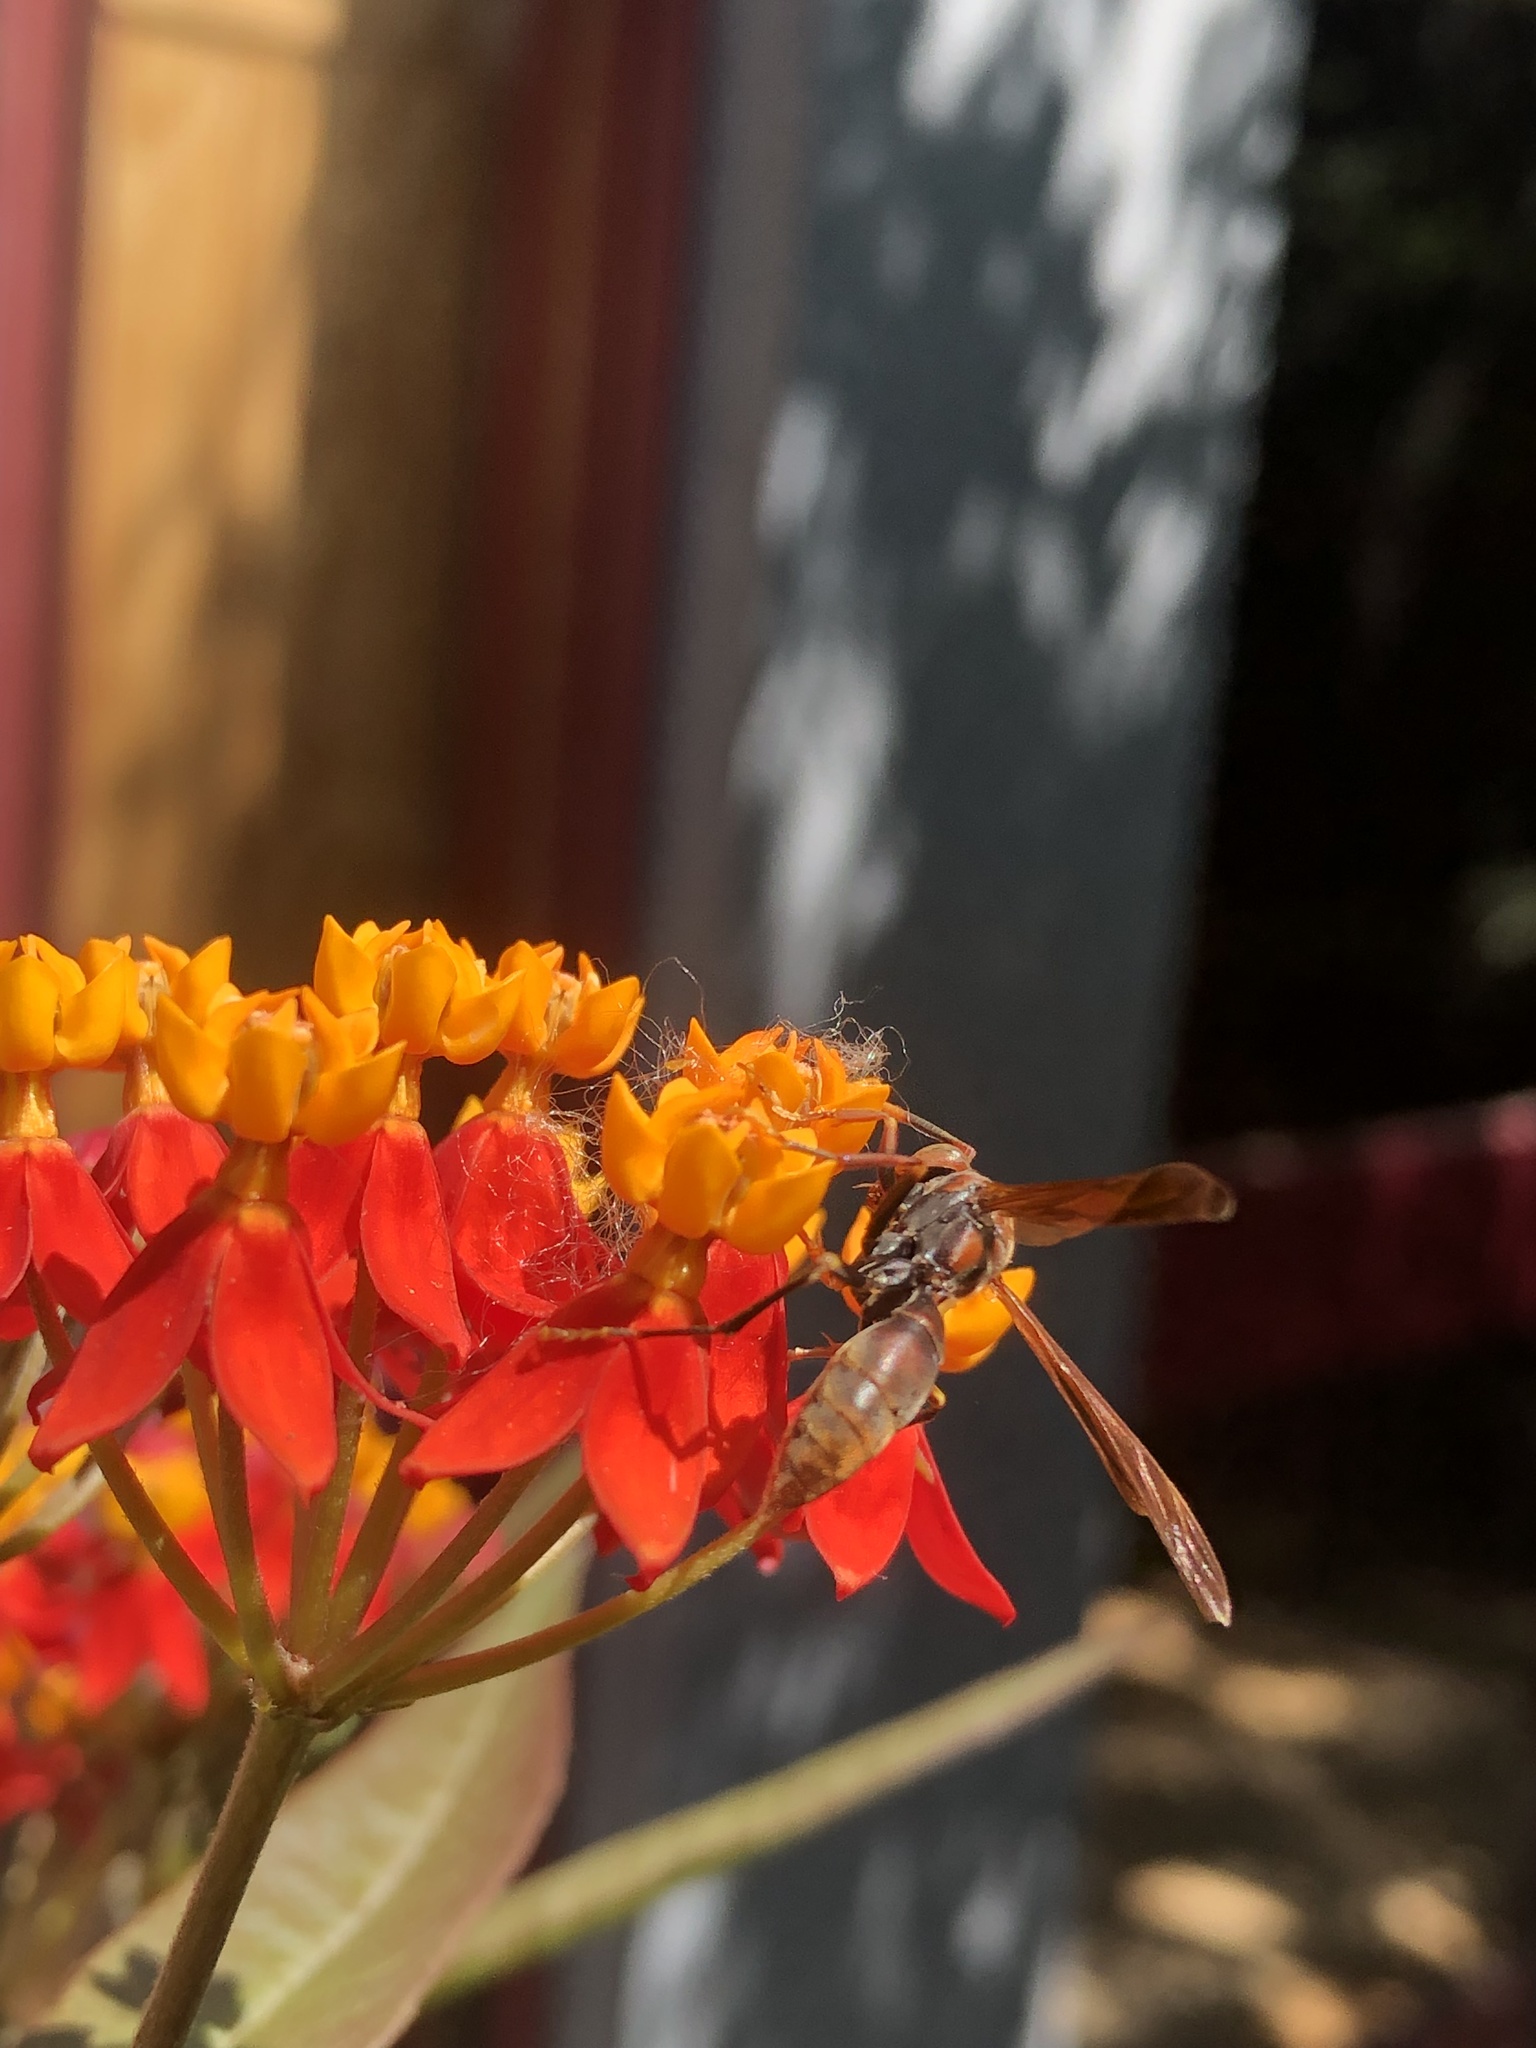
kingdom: Animalia
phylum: Arthropoda
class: Insecta
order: Hymenoptera
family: Pompilidae
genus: Aphanilopterus
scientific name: Aphanilopterus
